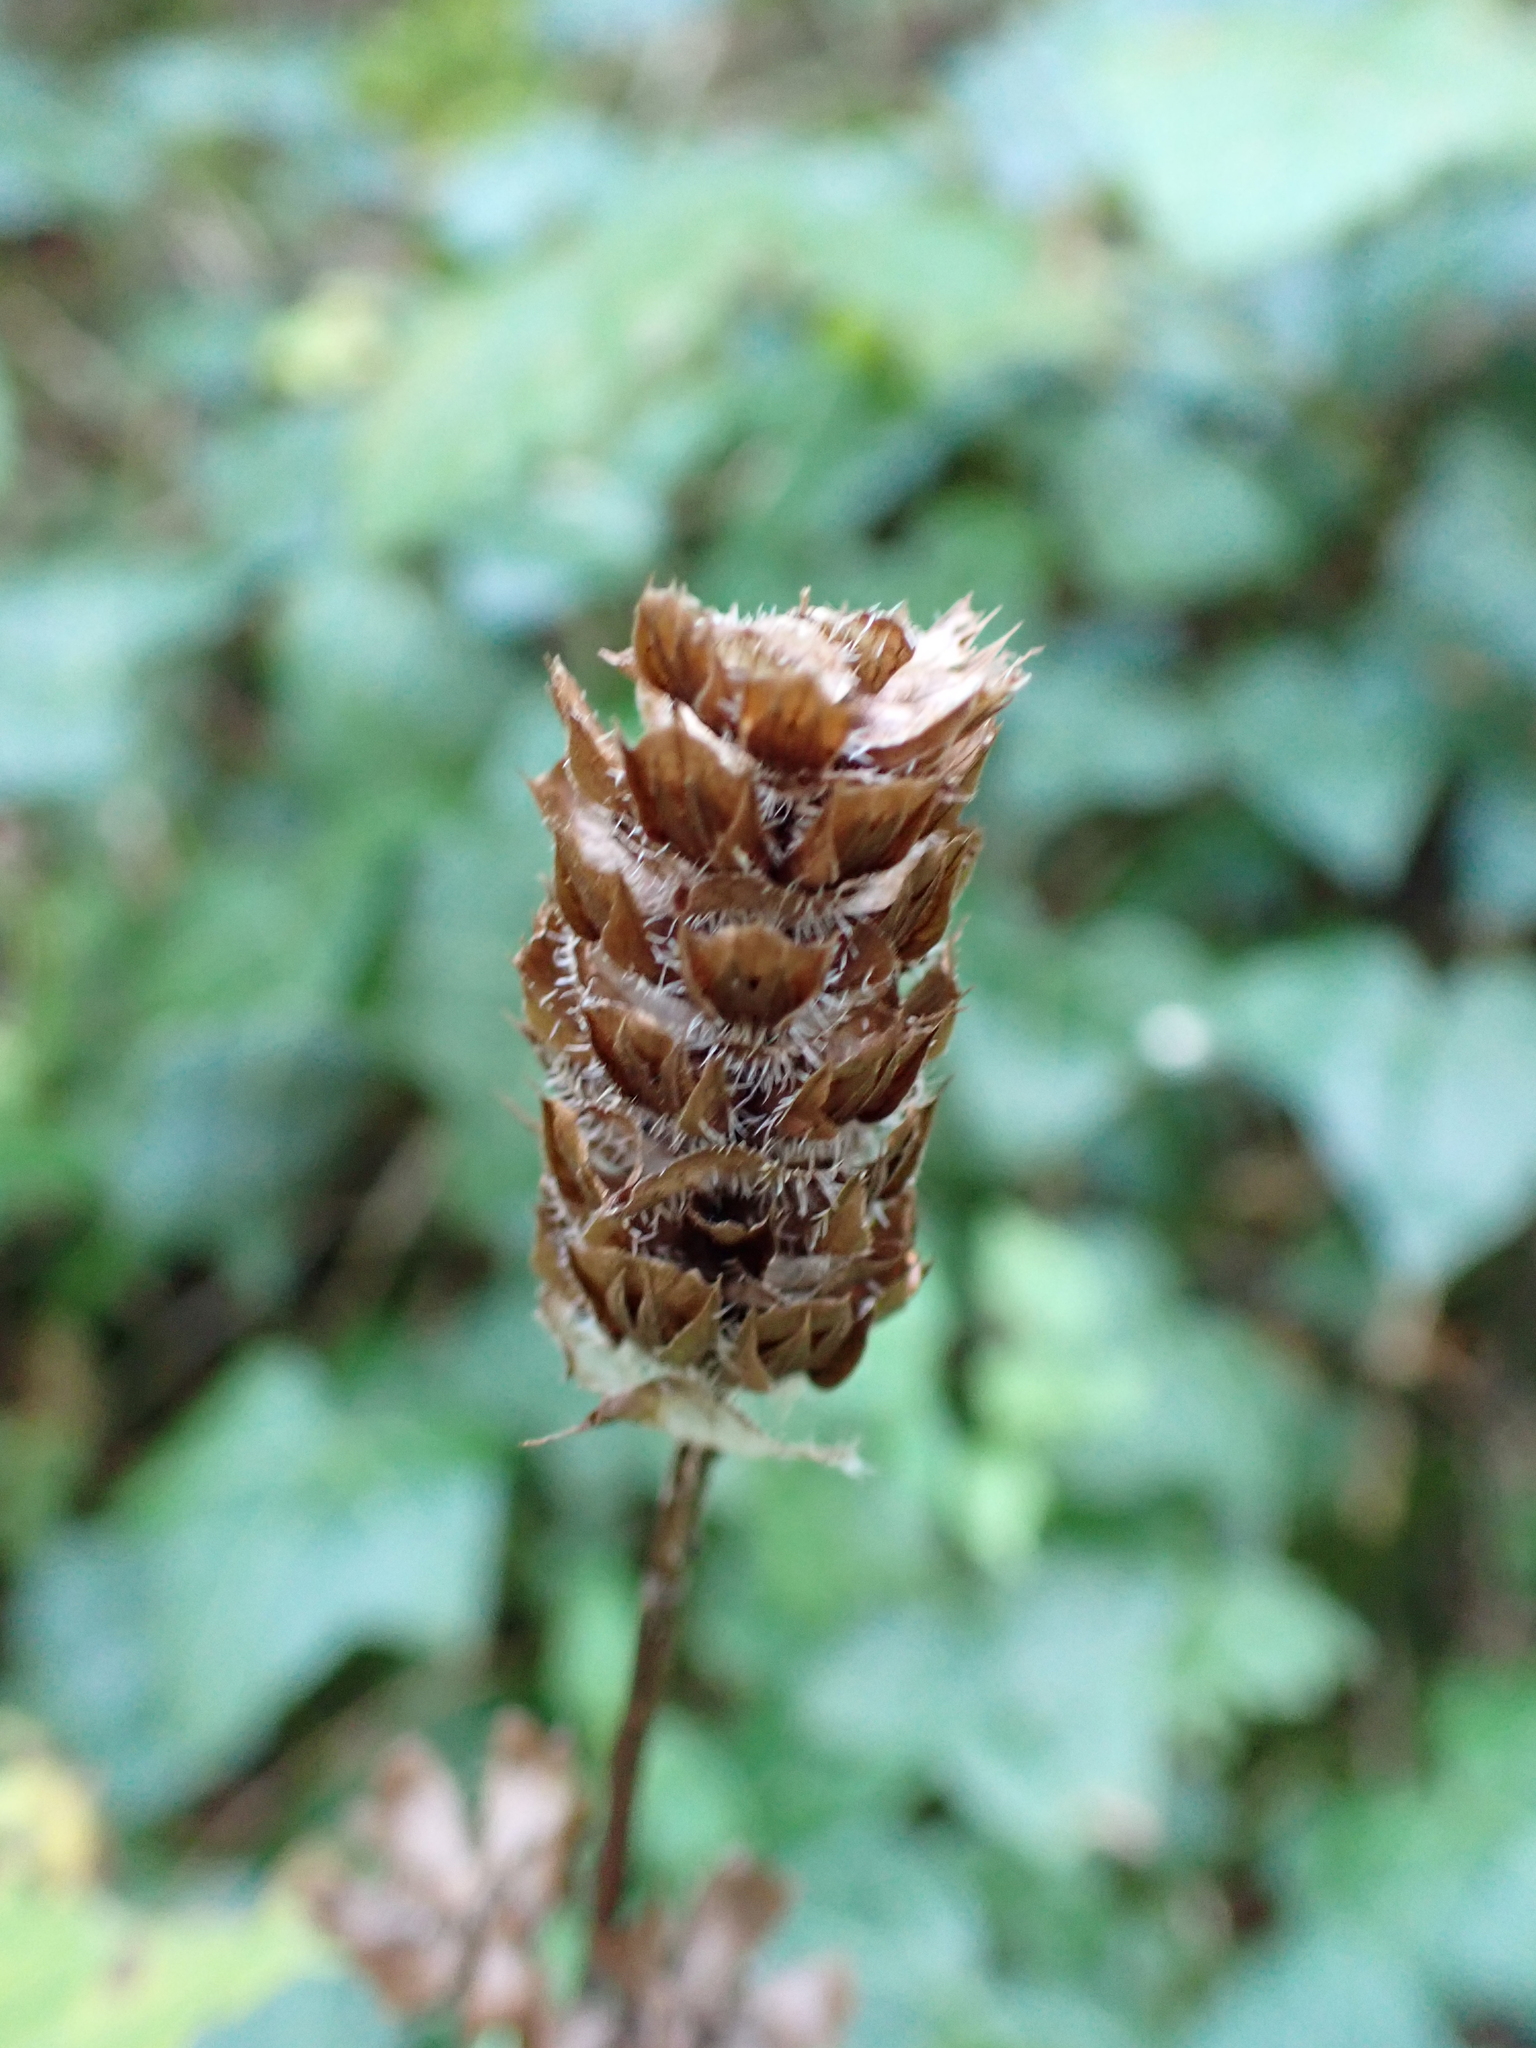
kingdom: Plantae
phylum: Tracheophyta
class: Magnoliopsida
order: Lamiales
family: Lamiaceae
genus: Prunella
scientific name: Prunella vulgaris
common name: Heal-all
